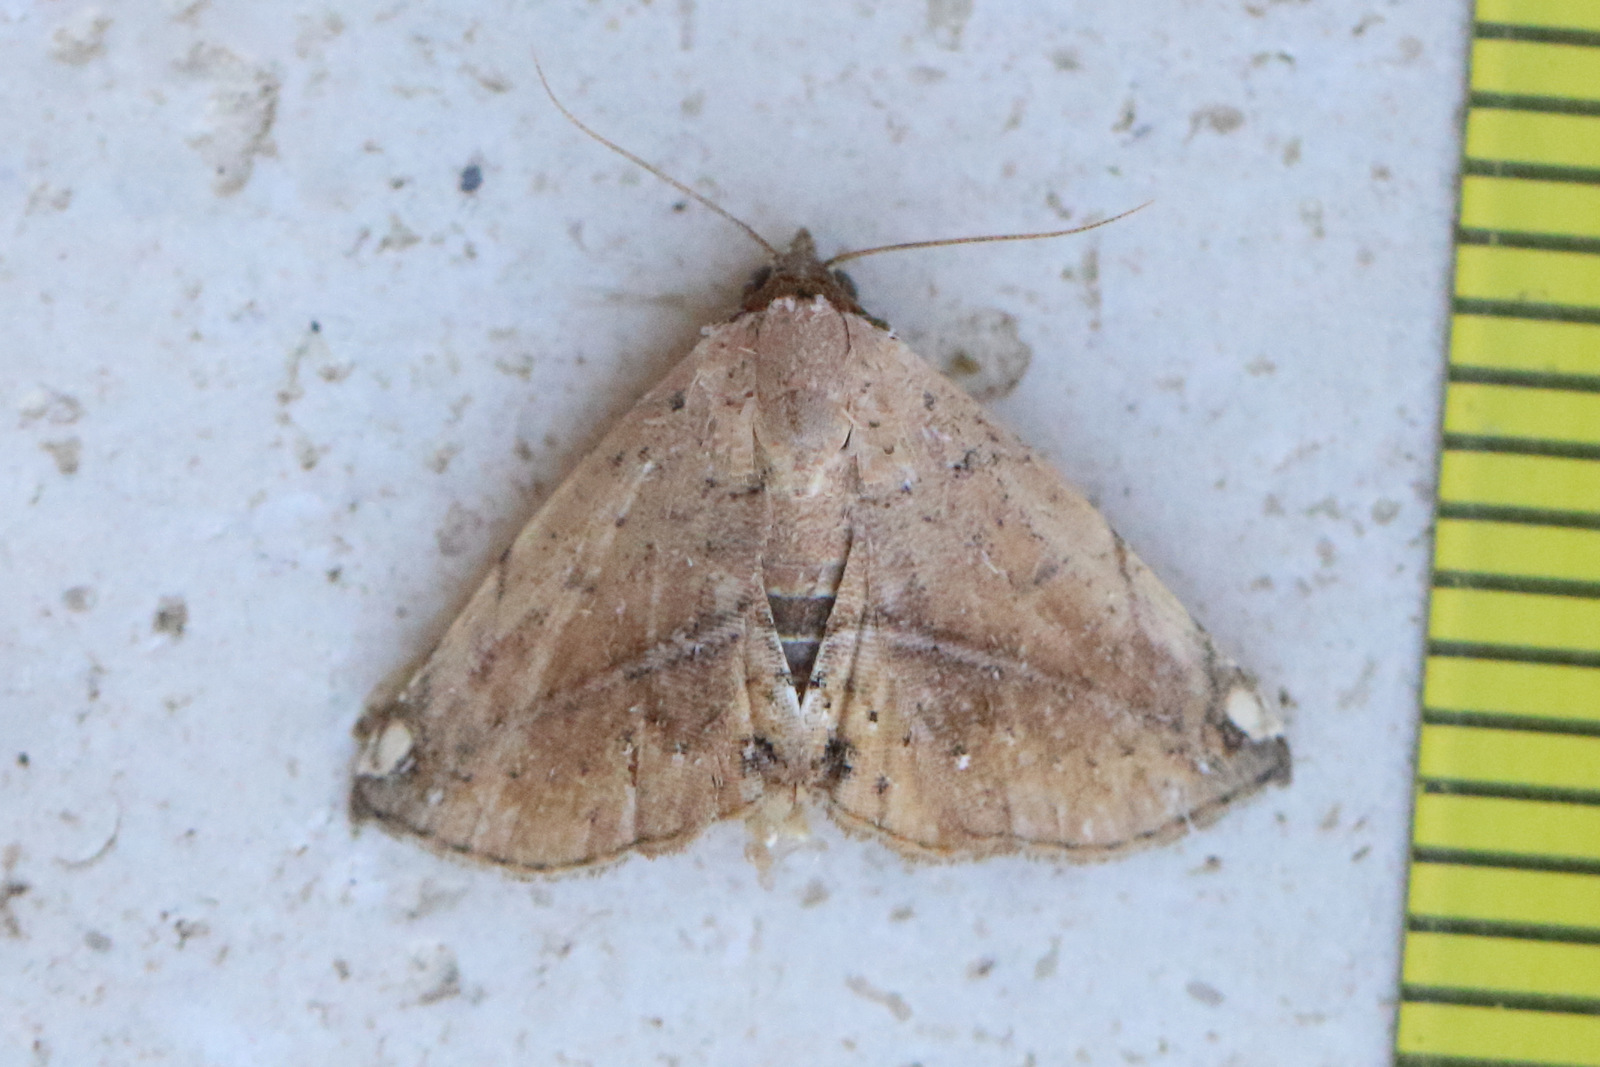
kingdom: Animalia
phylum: Arthropoda
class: Insecta
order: Lepidoptera
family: Noctuidae
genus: Eublemma
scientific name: Eublemma abrupta
